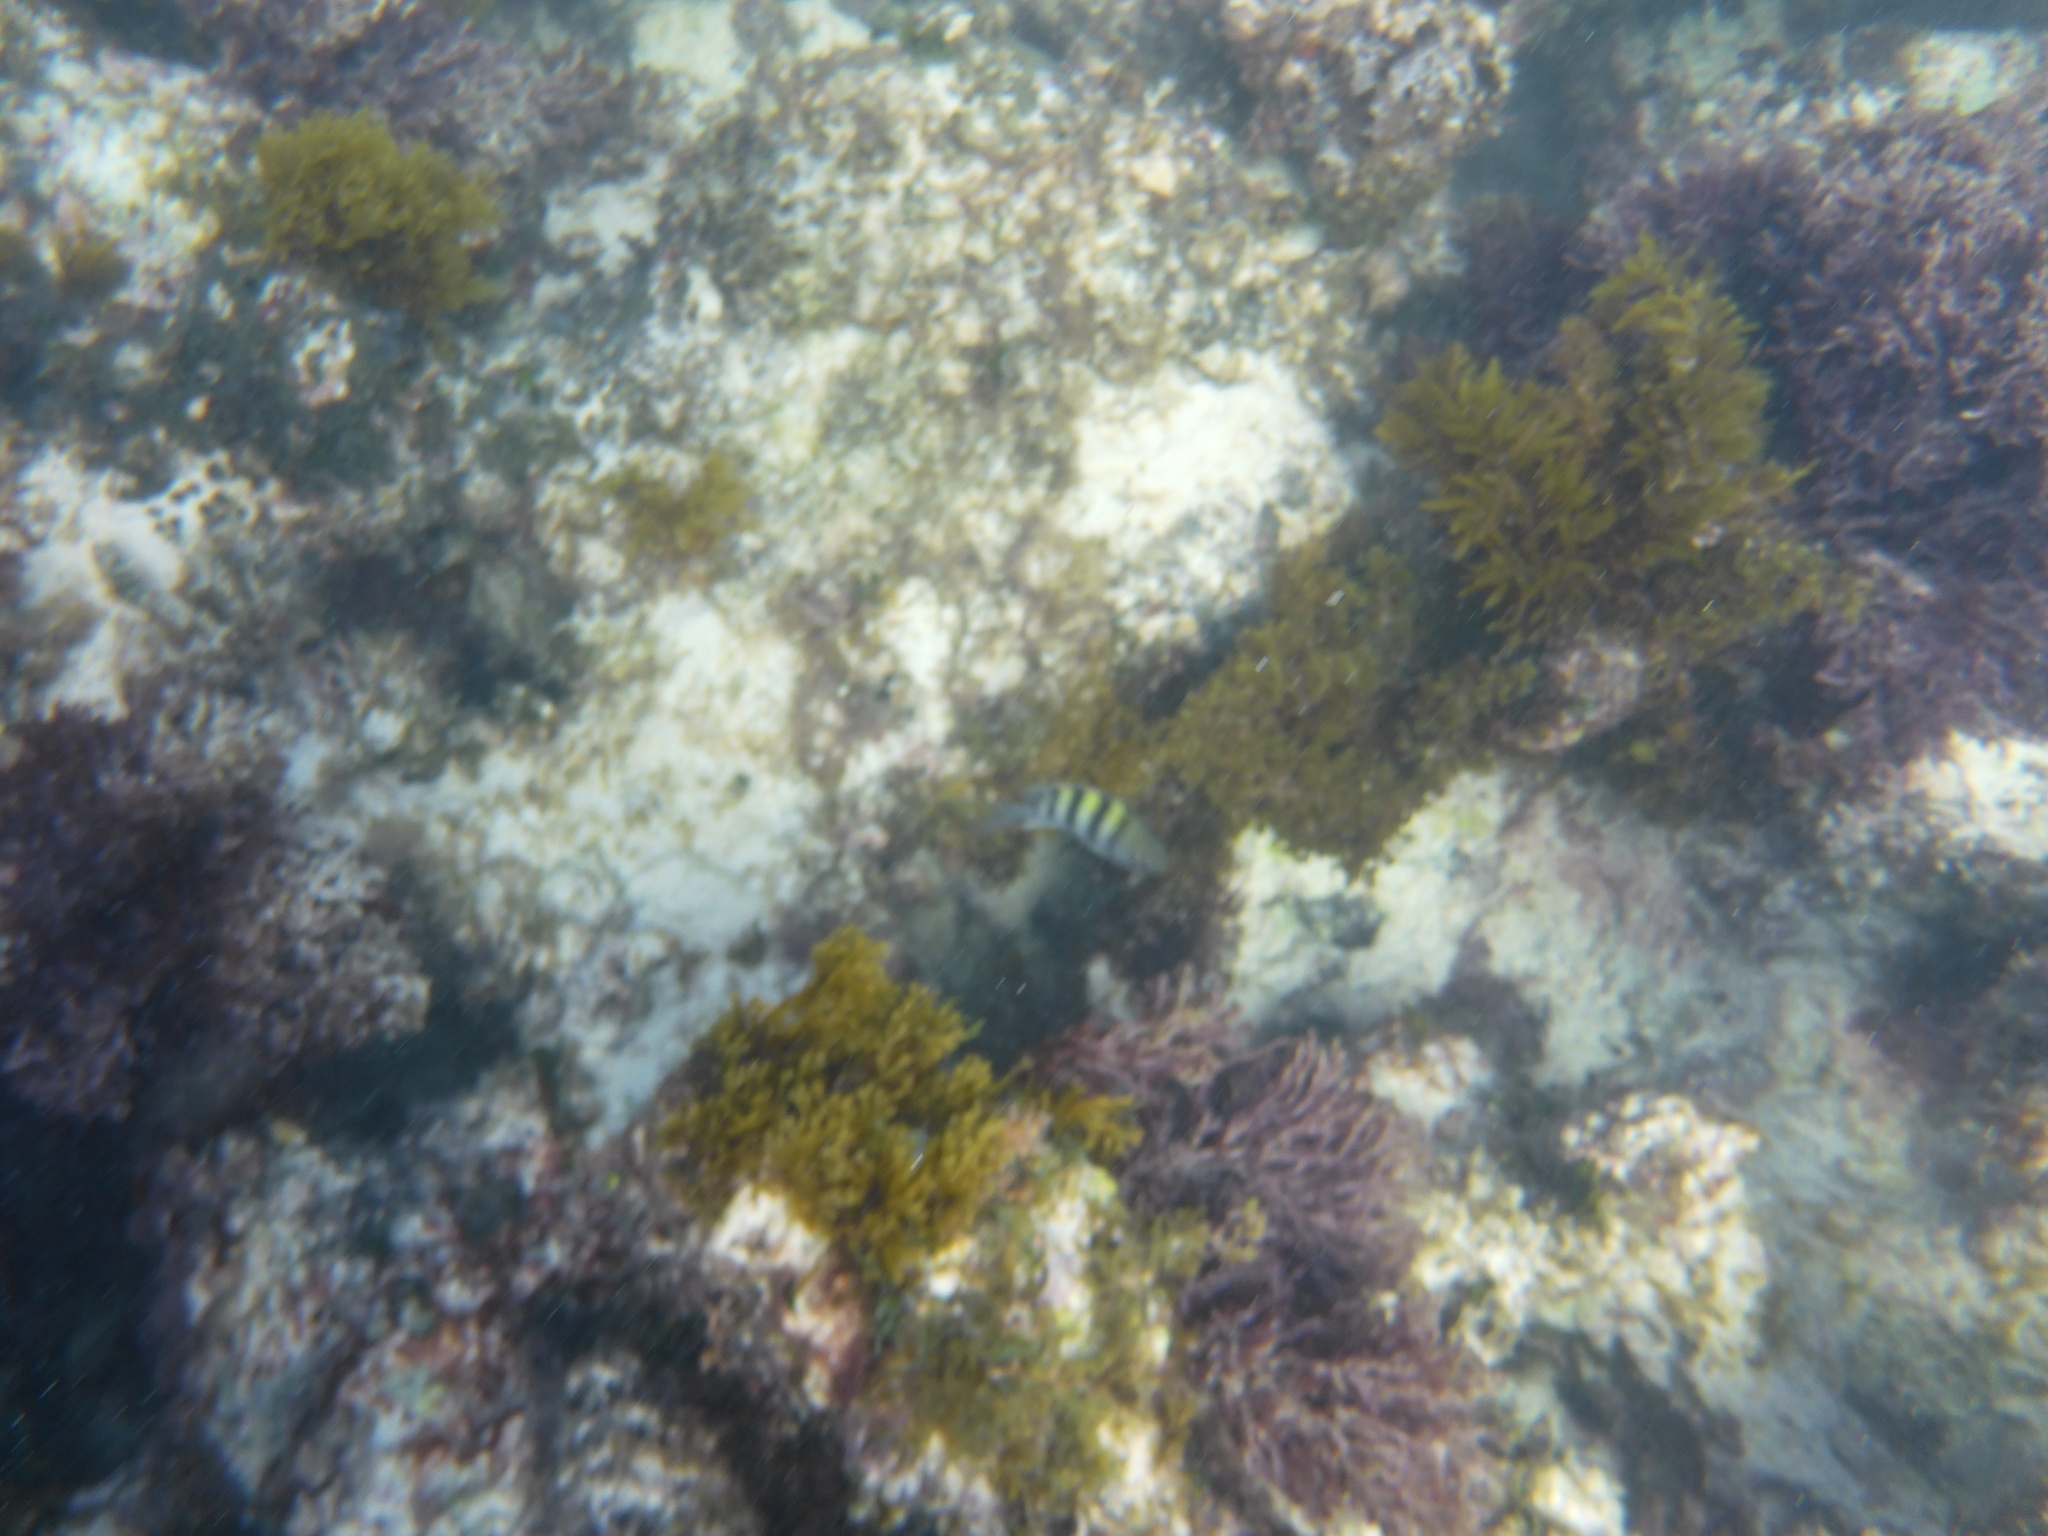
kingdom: Animalia
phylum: Chordata
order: Perciformes
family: Pomacentridae
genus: Abudefduf
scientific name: Abudefduf saxatilis
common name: Sergeant major
